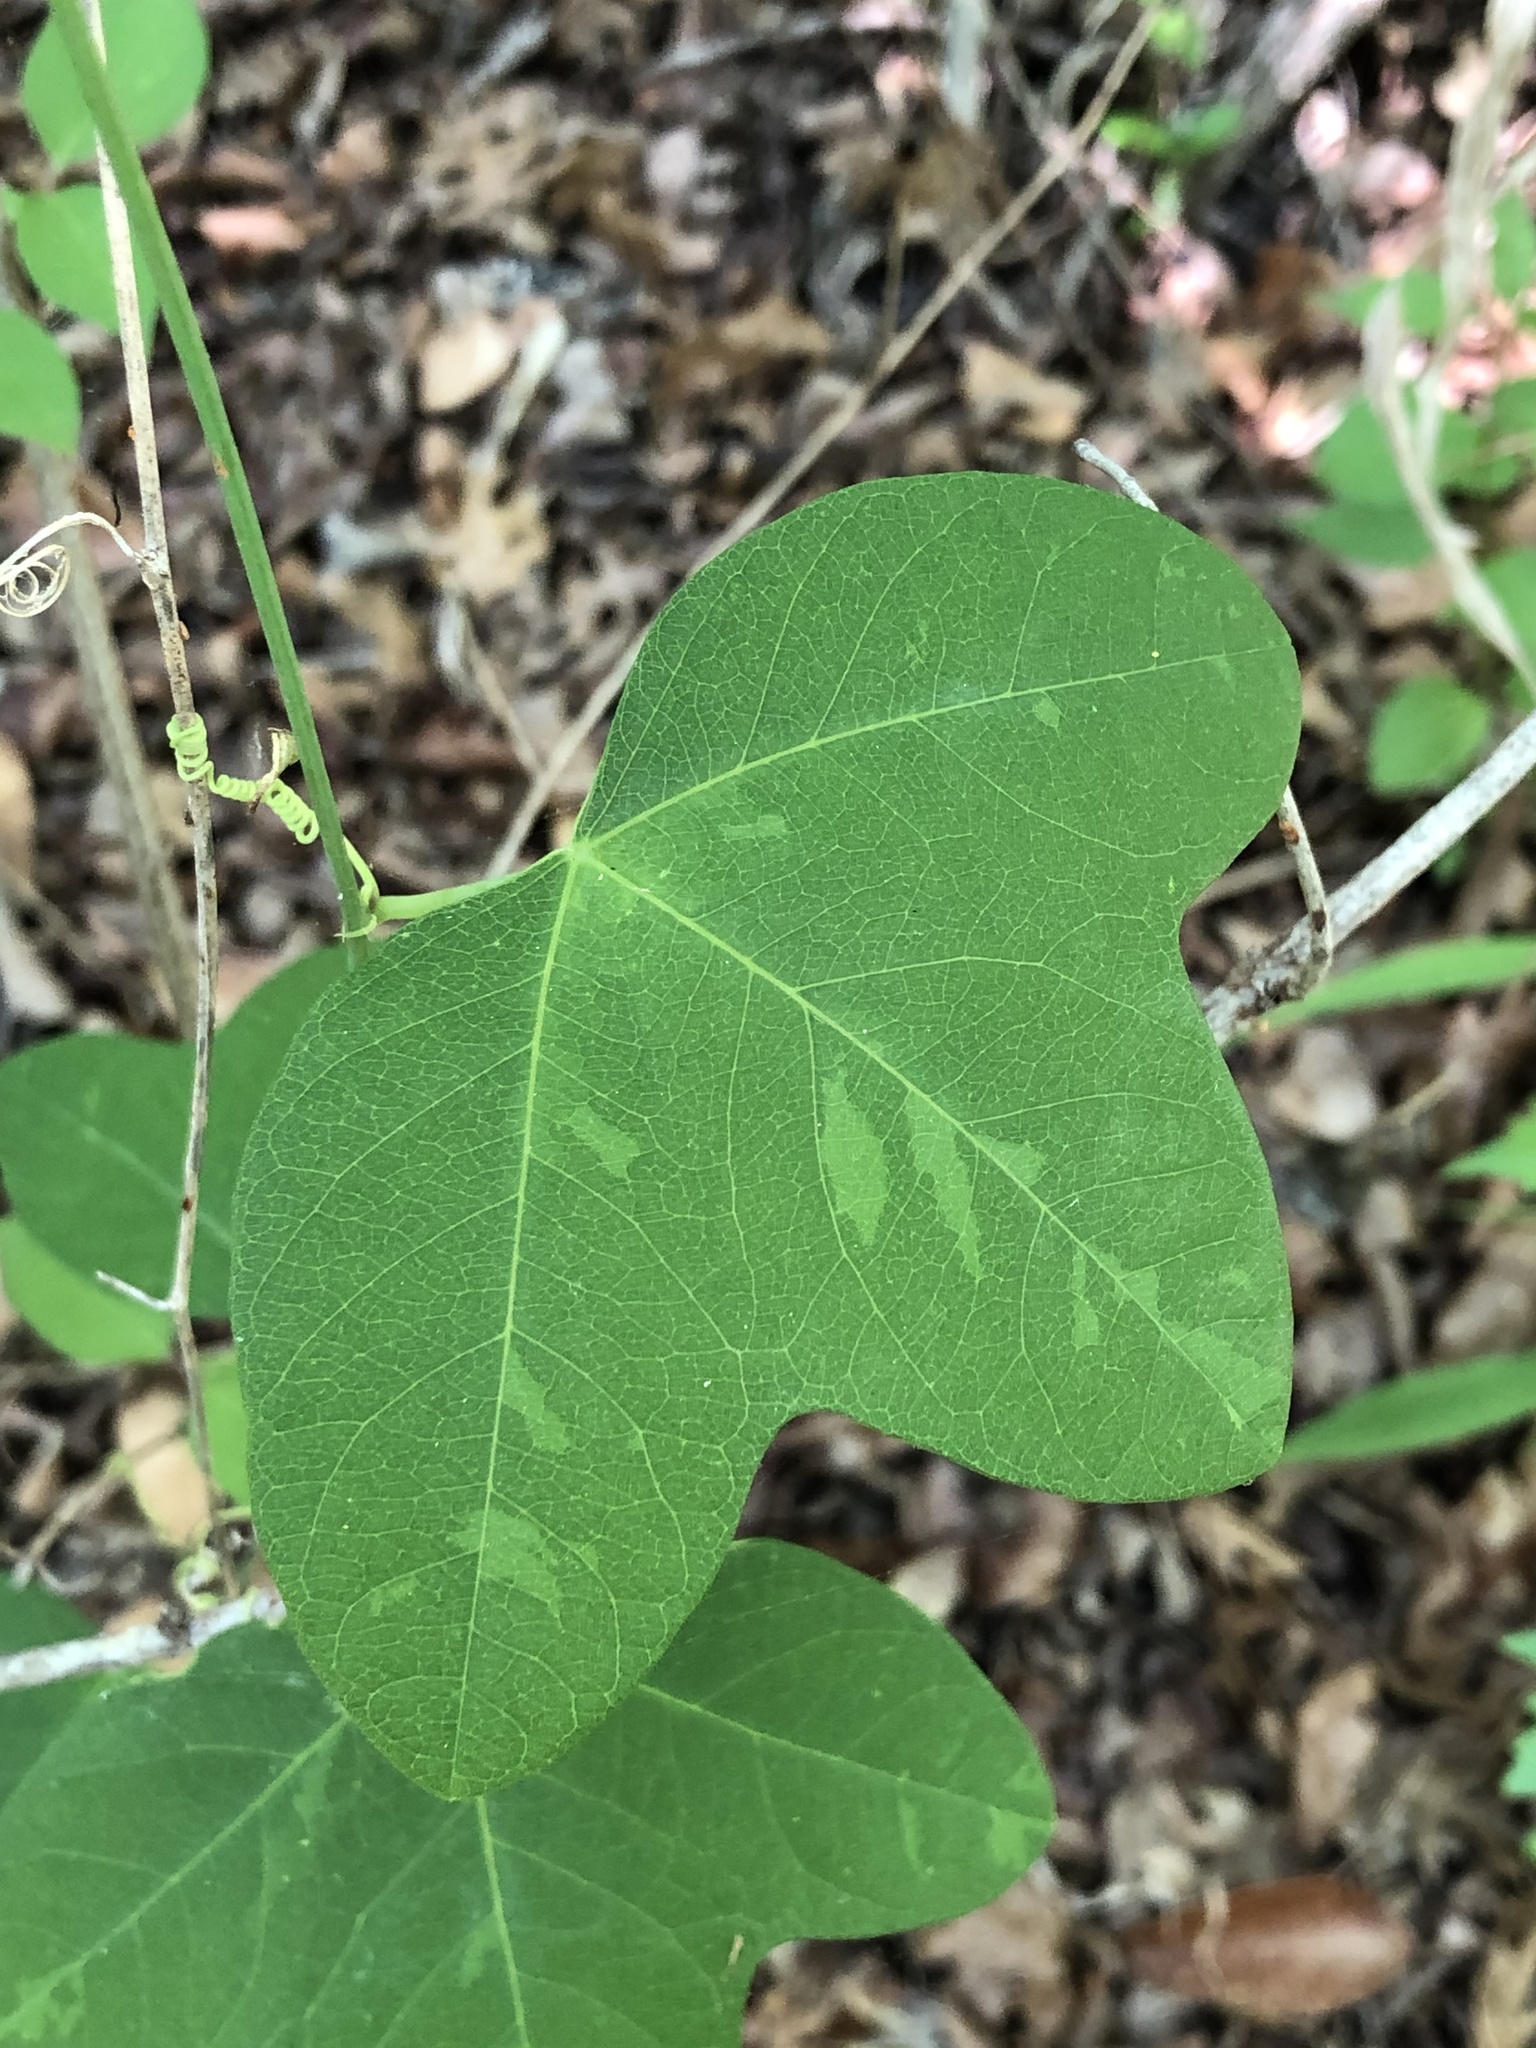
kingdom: Plantae
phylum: Tracheophyta
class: Magnoliopsida
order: Malpighiales
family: Passifloraceae
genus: Passiflora
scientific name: Passiflora lutea
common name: Yellow passionflower
